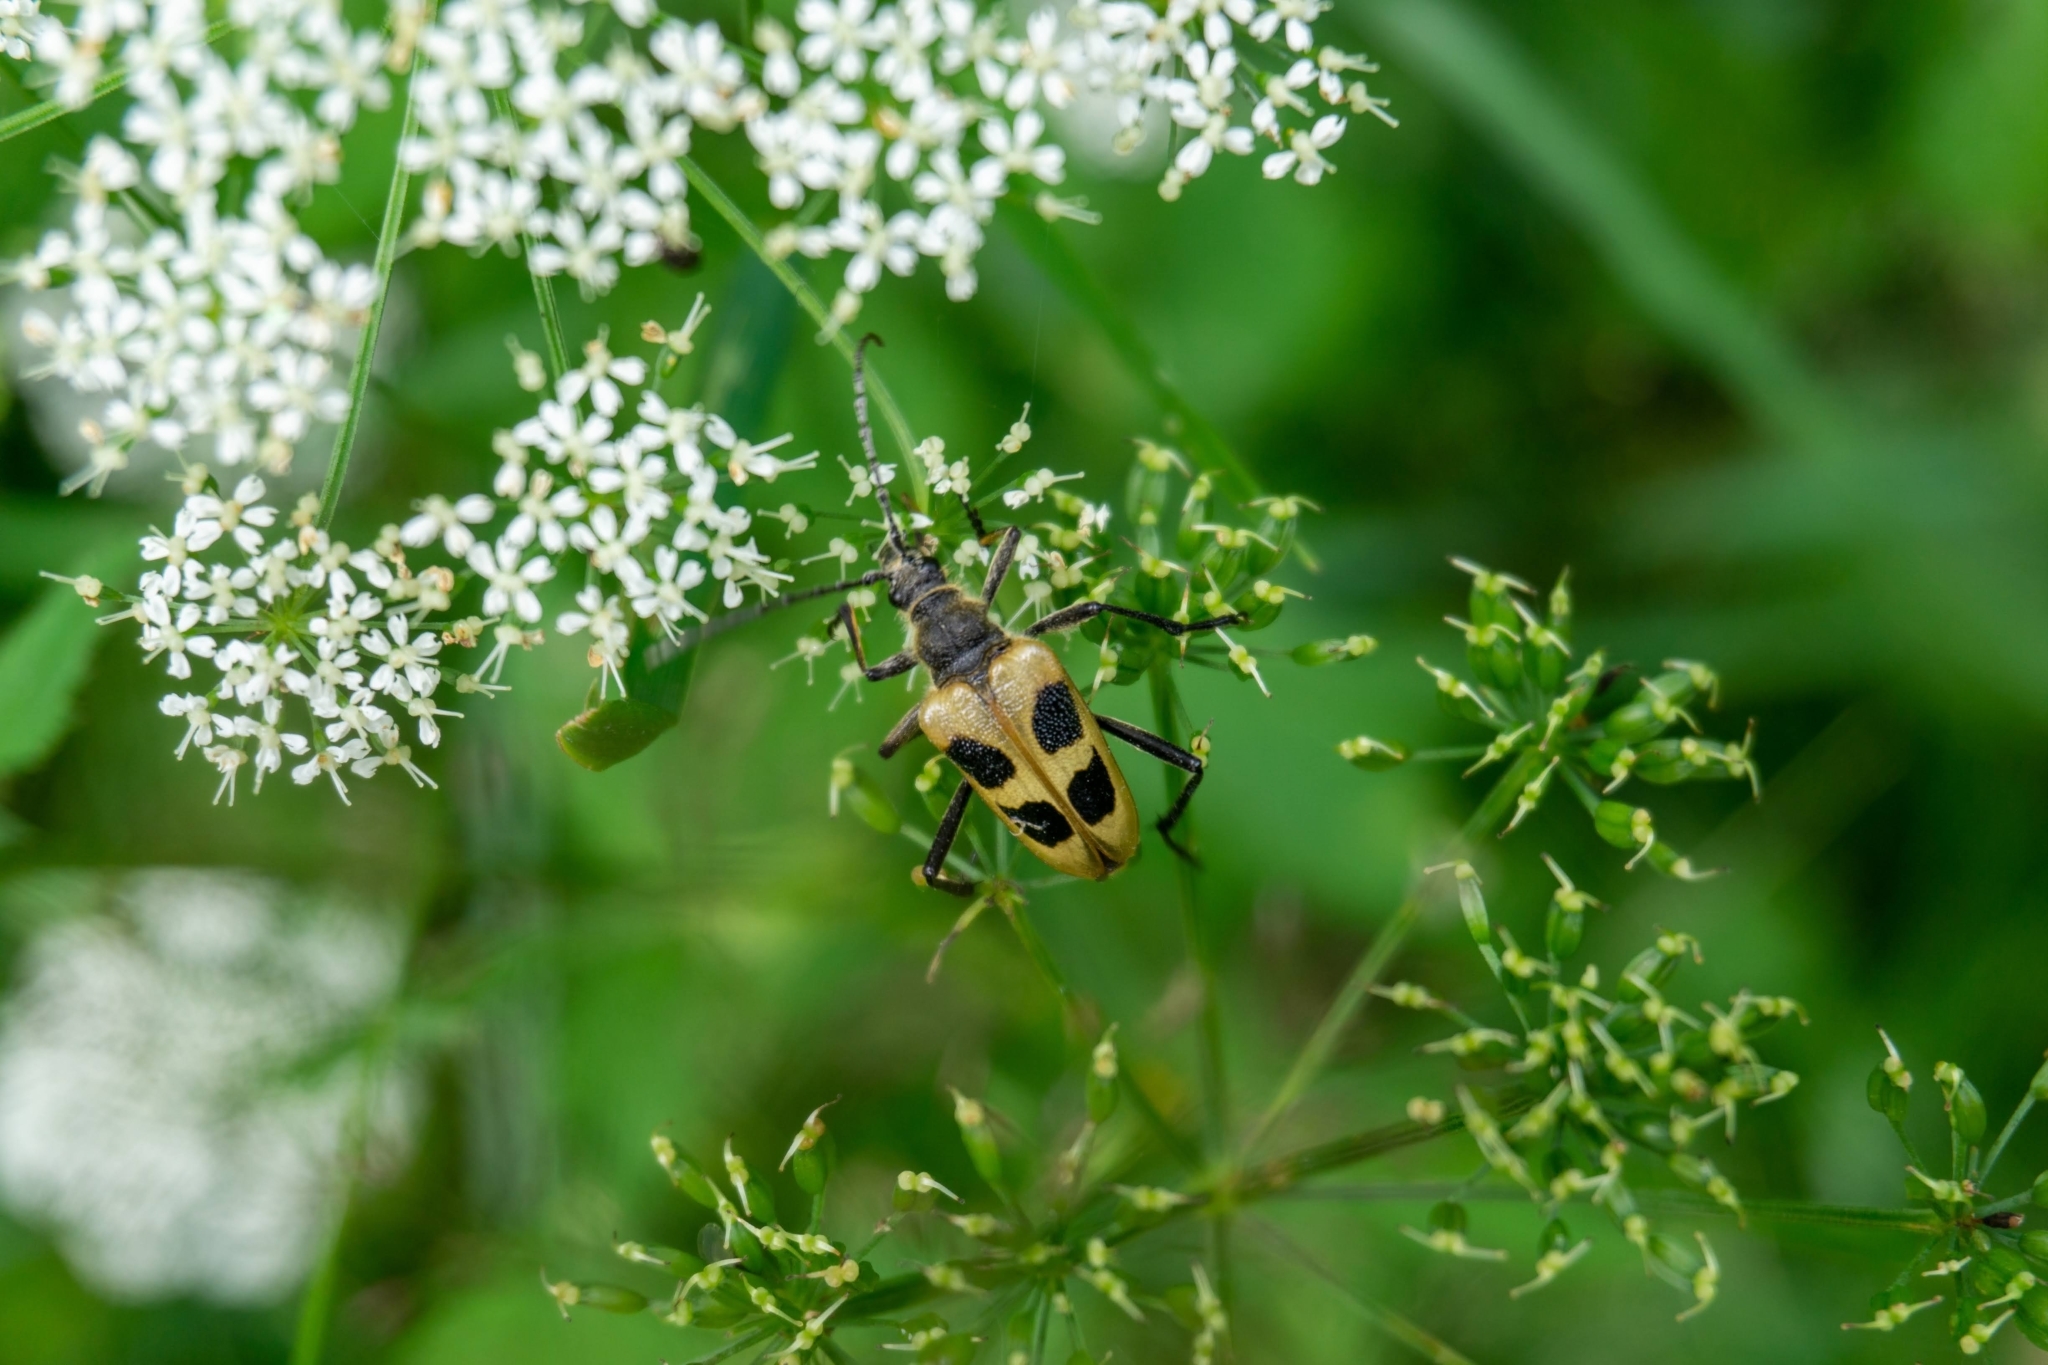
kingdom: Animalia
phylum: Arthropoda
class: Insecta
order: Coleoptera
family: Cerambycidae
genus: Pachyta
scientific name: Pachyta quadrimaculata
